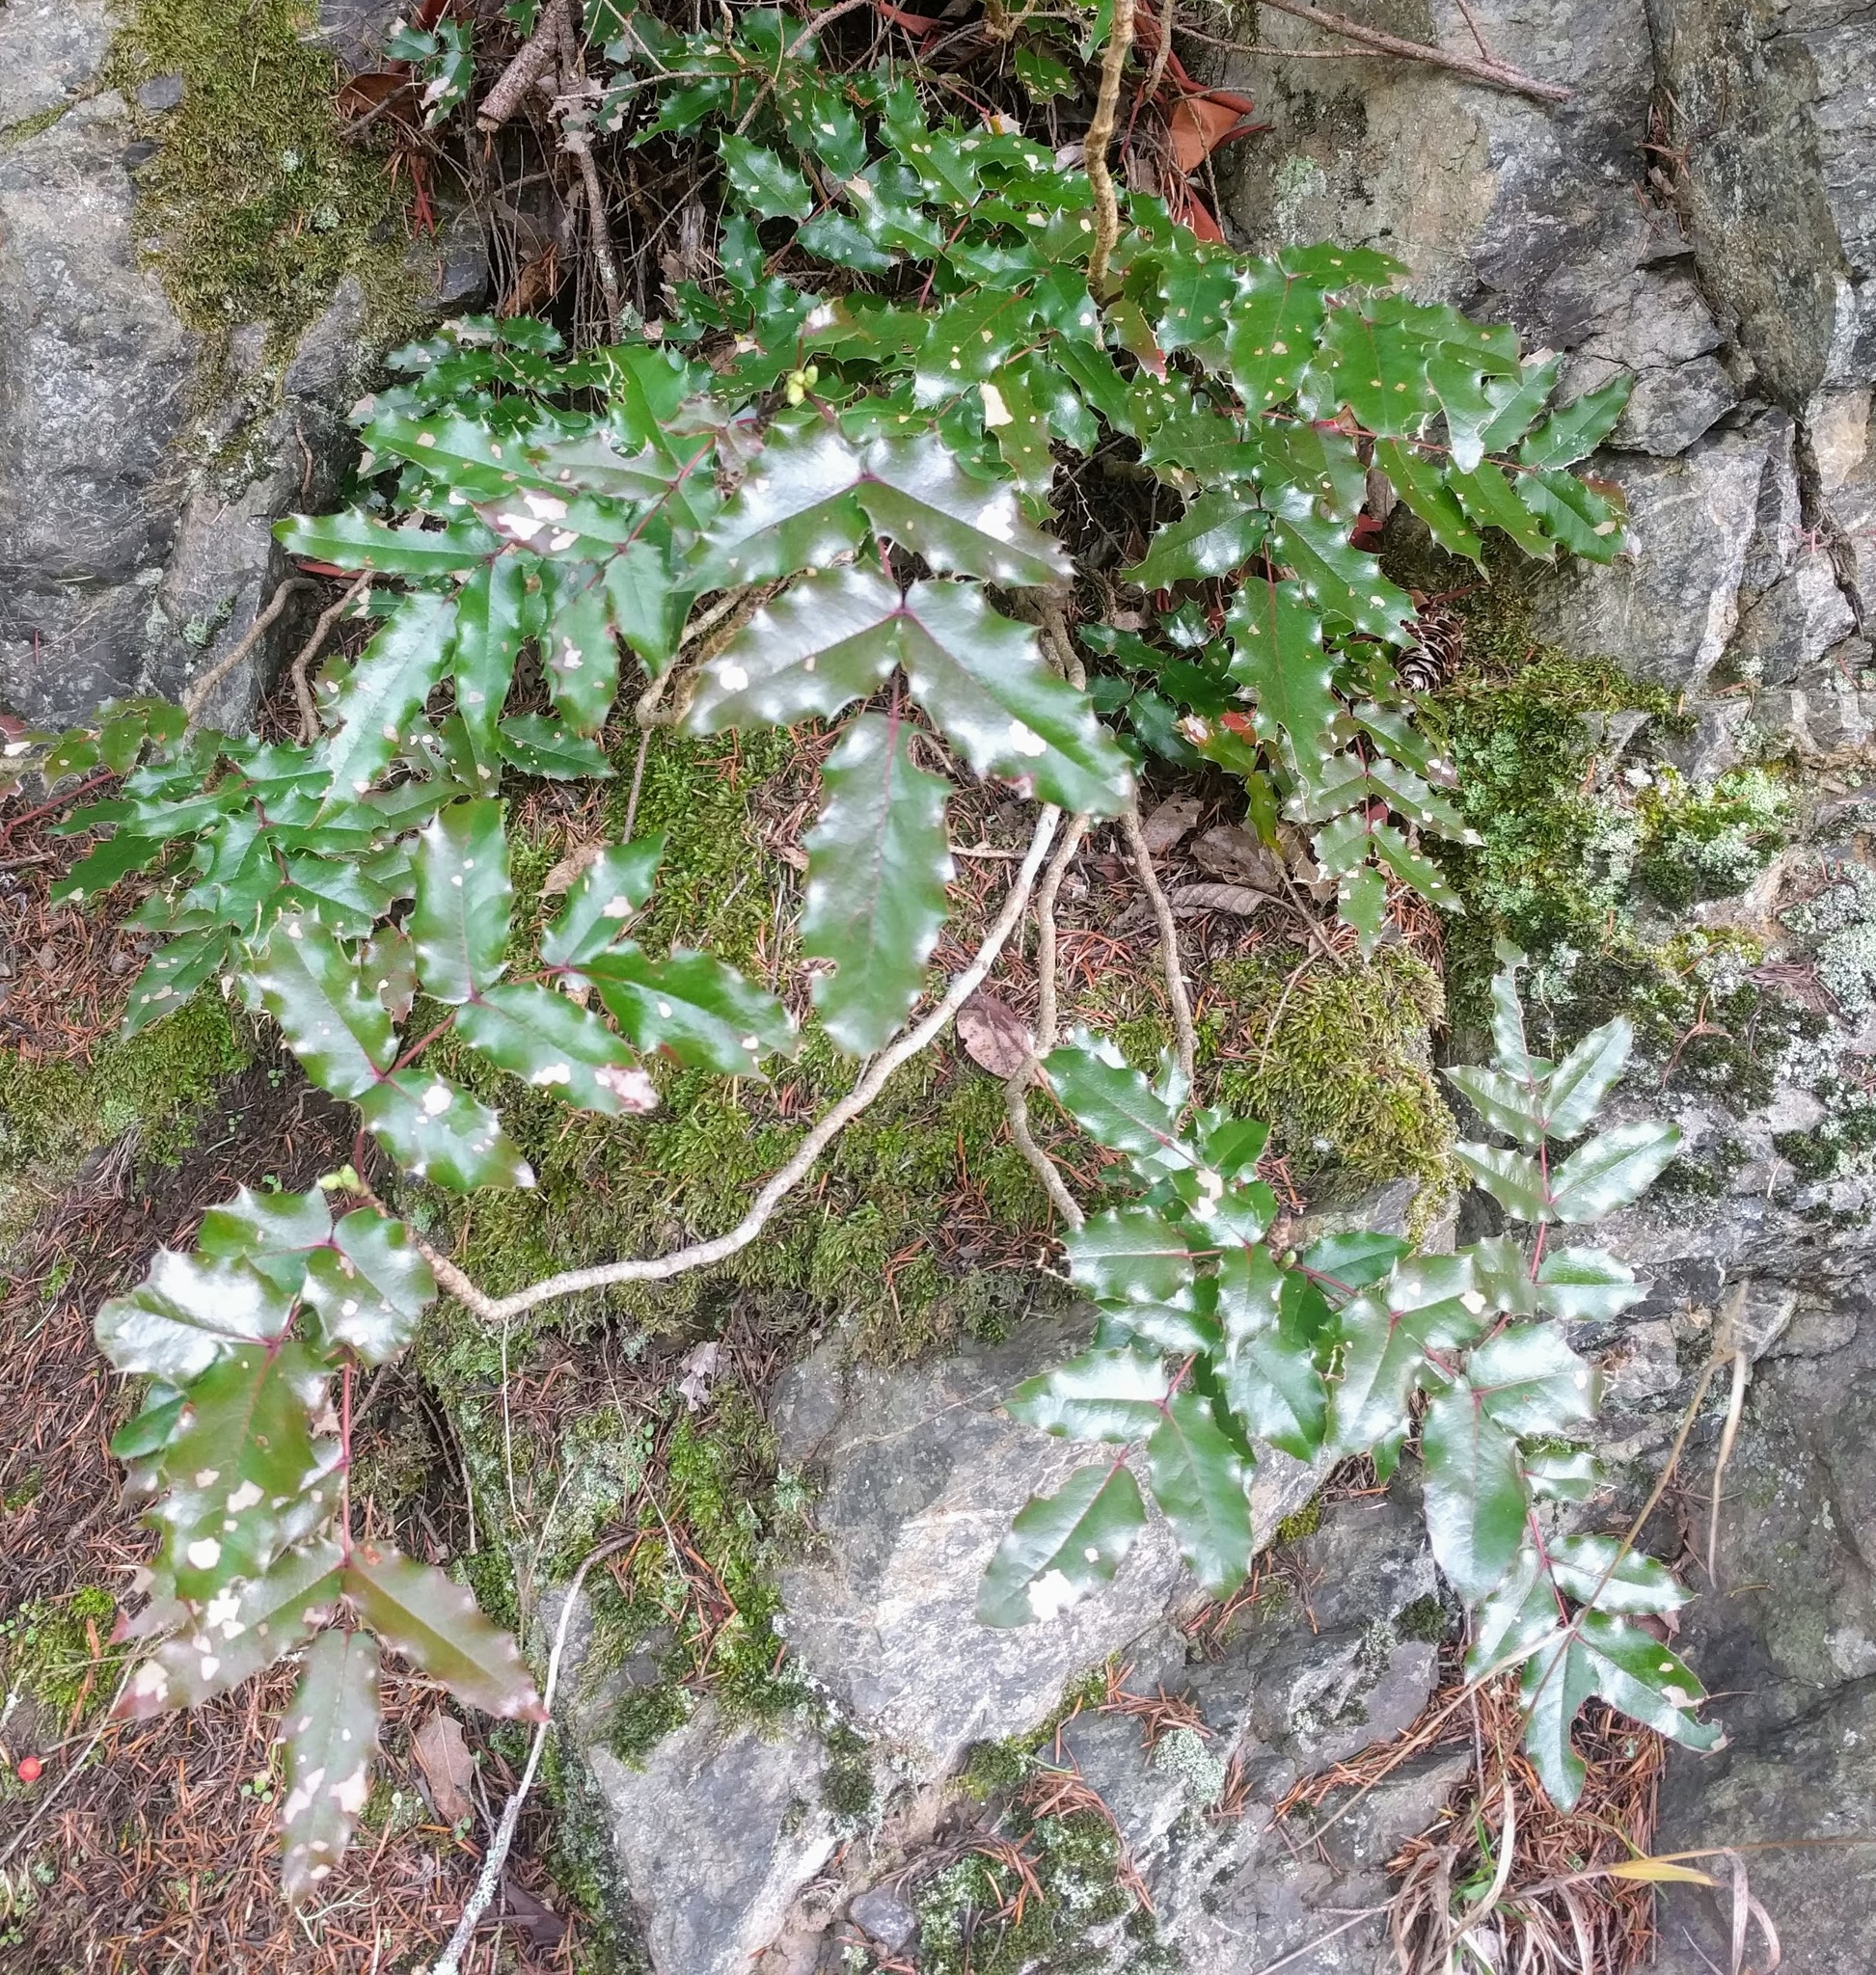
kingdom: Plantae
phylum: Tracheophyta
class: Magnoliopsida
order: Ranunculales
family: Berberidaceae
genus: Mahonia
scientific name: Mahonia aquifolium
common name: Oregon-grape
